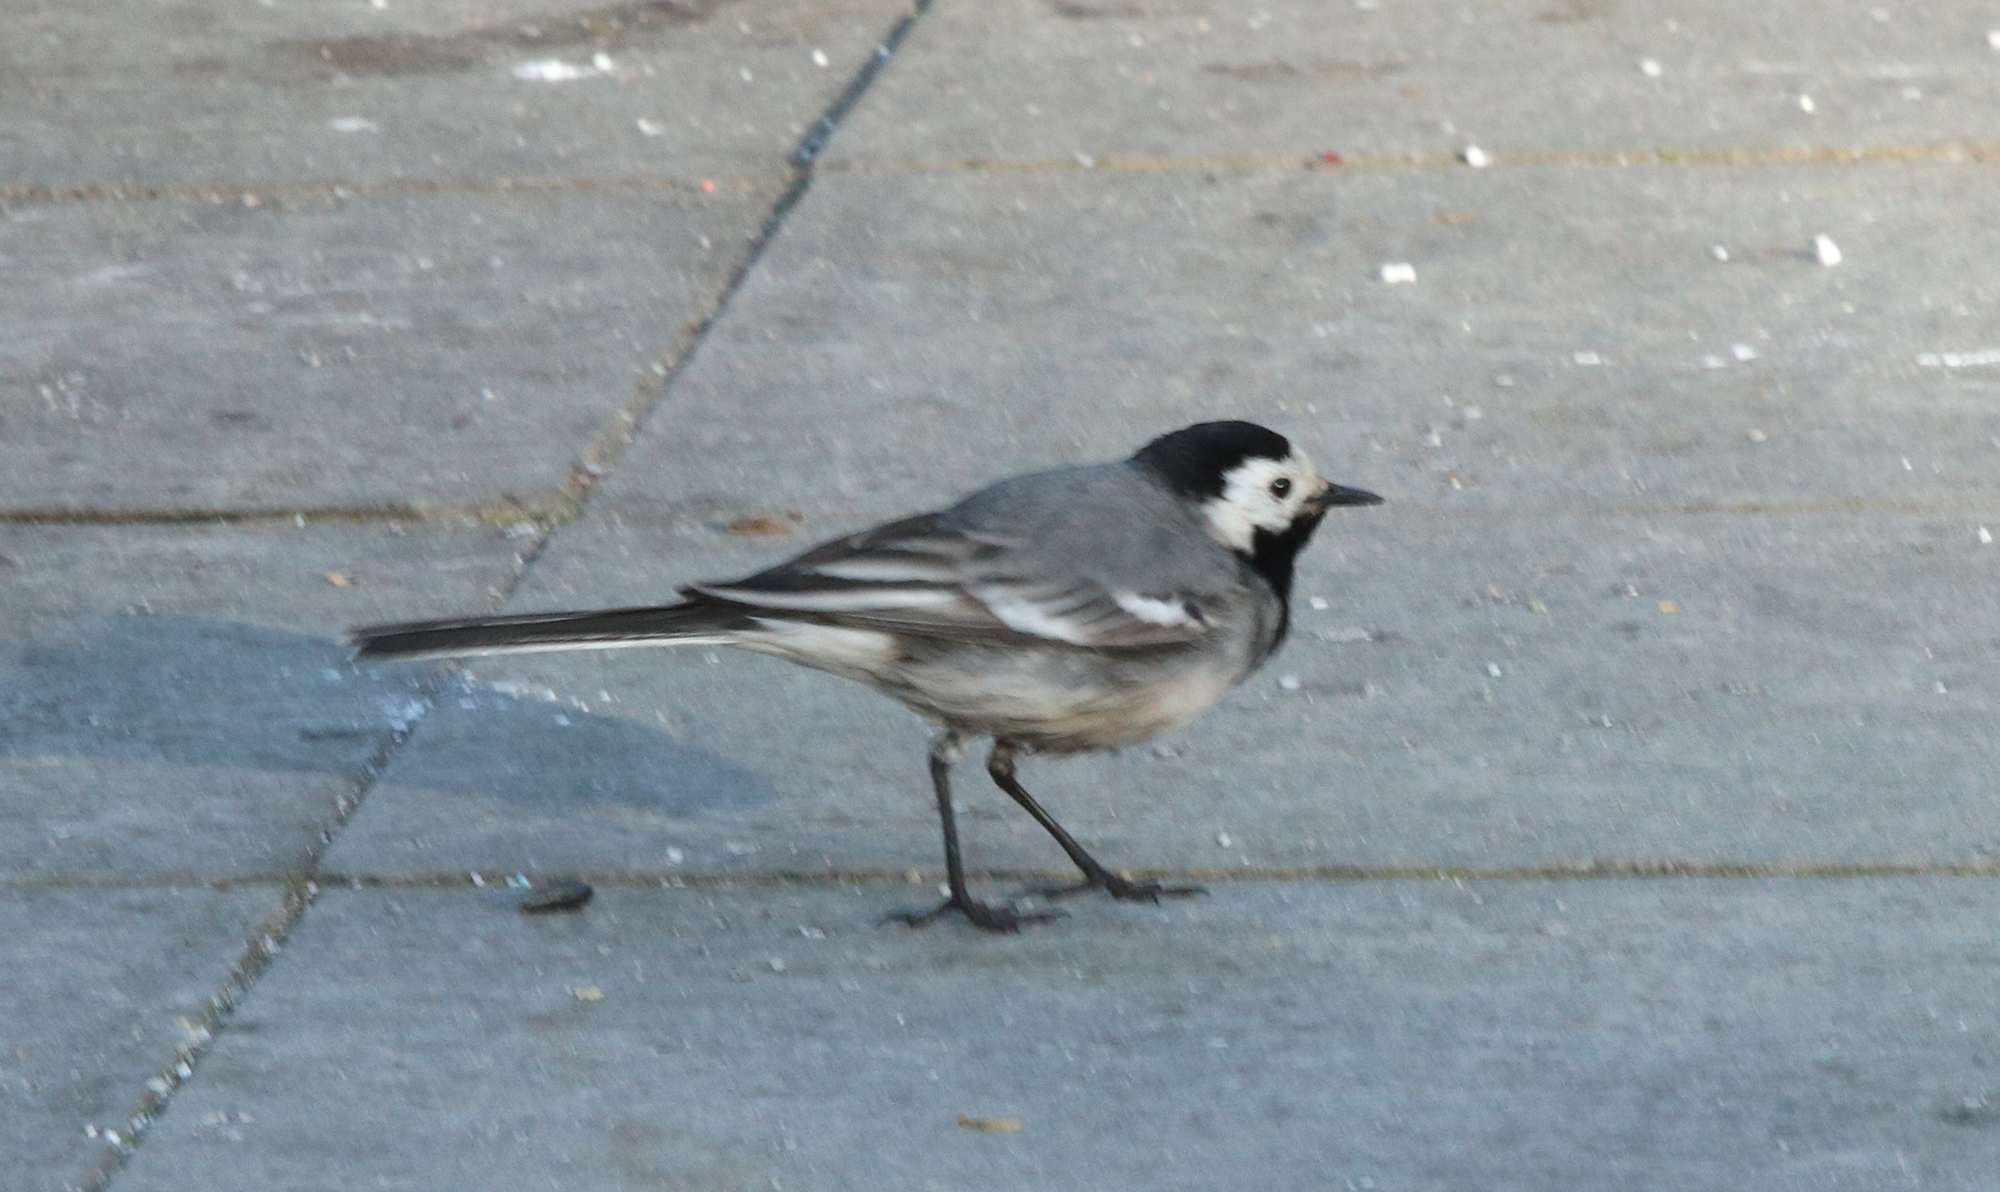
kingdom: Animalia
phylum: Chordata
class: Aves
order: Passeriformes
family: Motacillidae
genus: Motacilla
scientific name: Motacilla alba
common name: White wagtail
